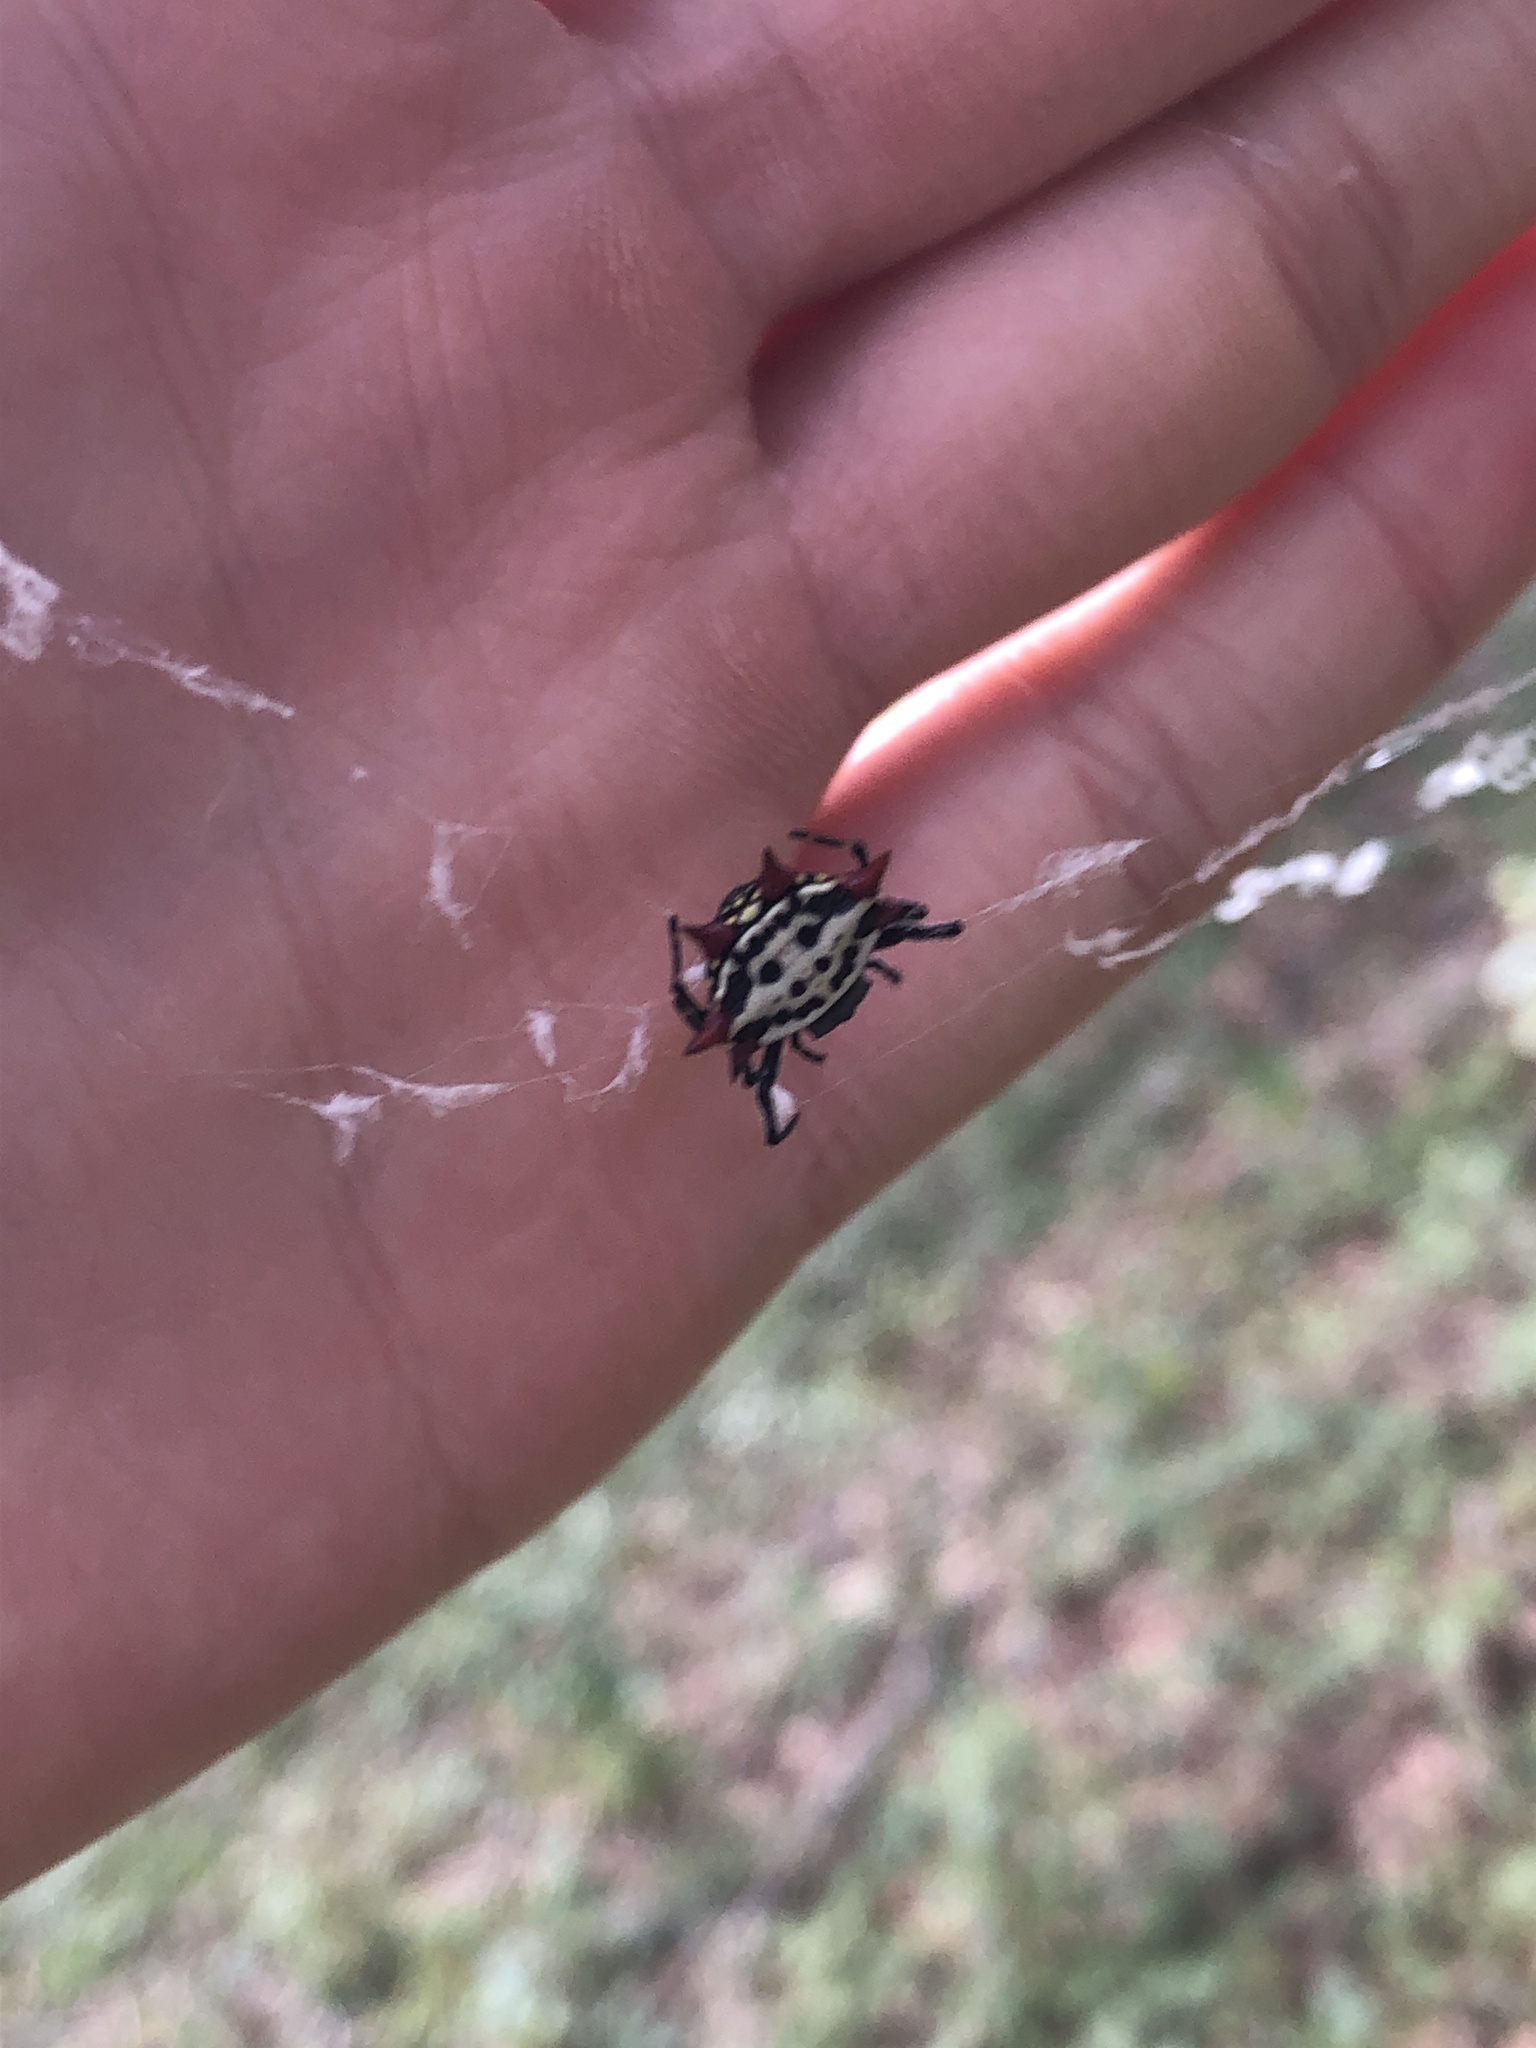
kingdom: Animalia
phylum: Arthropoda
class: Arachnida
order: Araneae
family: Araneidae
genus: Gasteracantha
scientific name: Gasteracantha cancriformis
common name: Orb weavers
